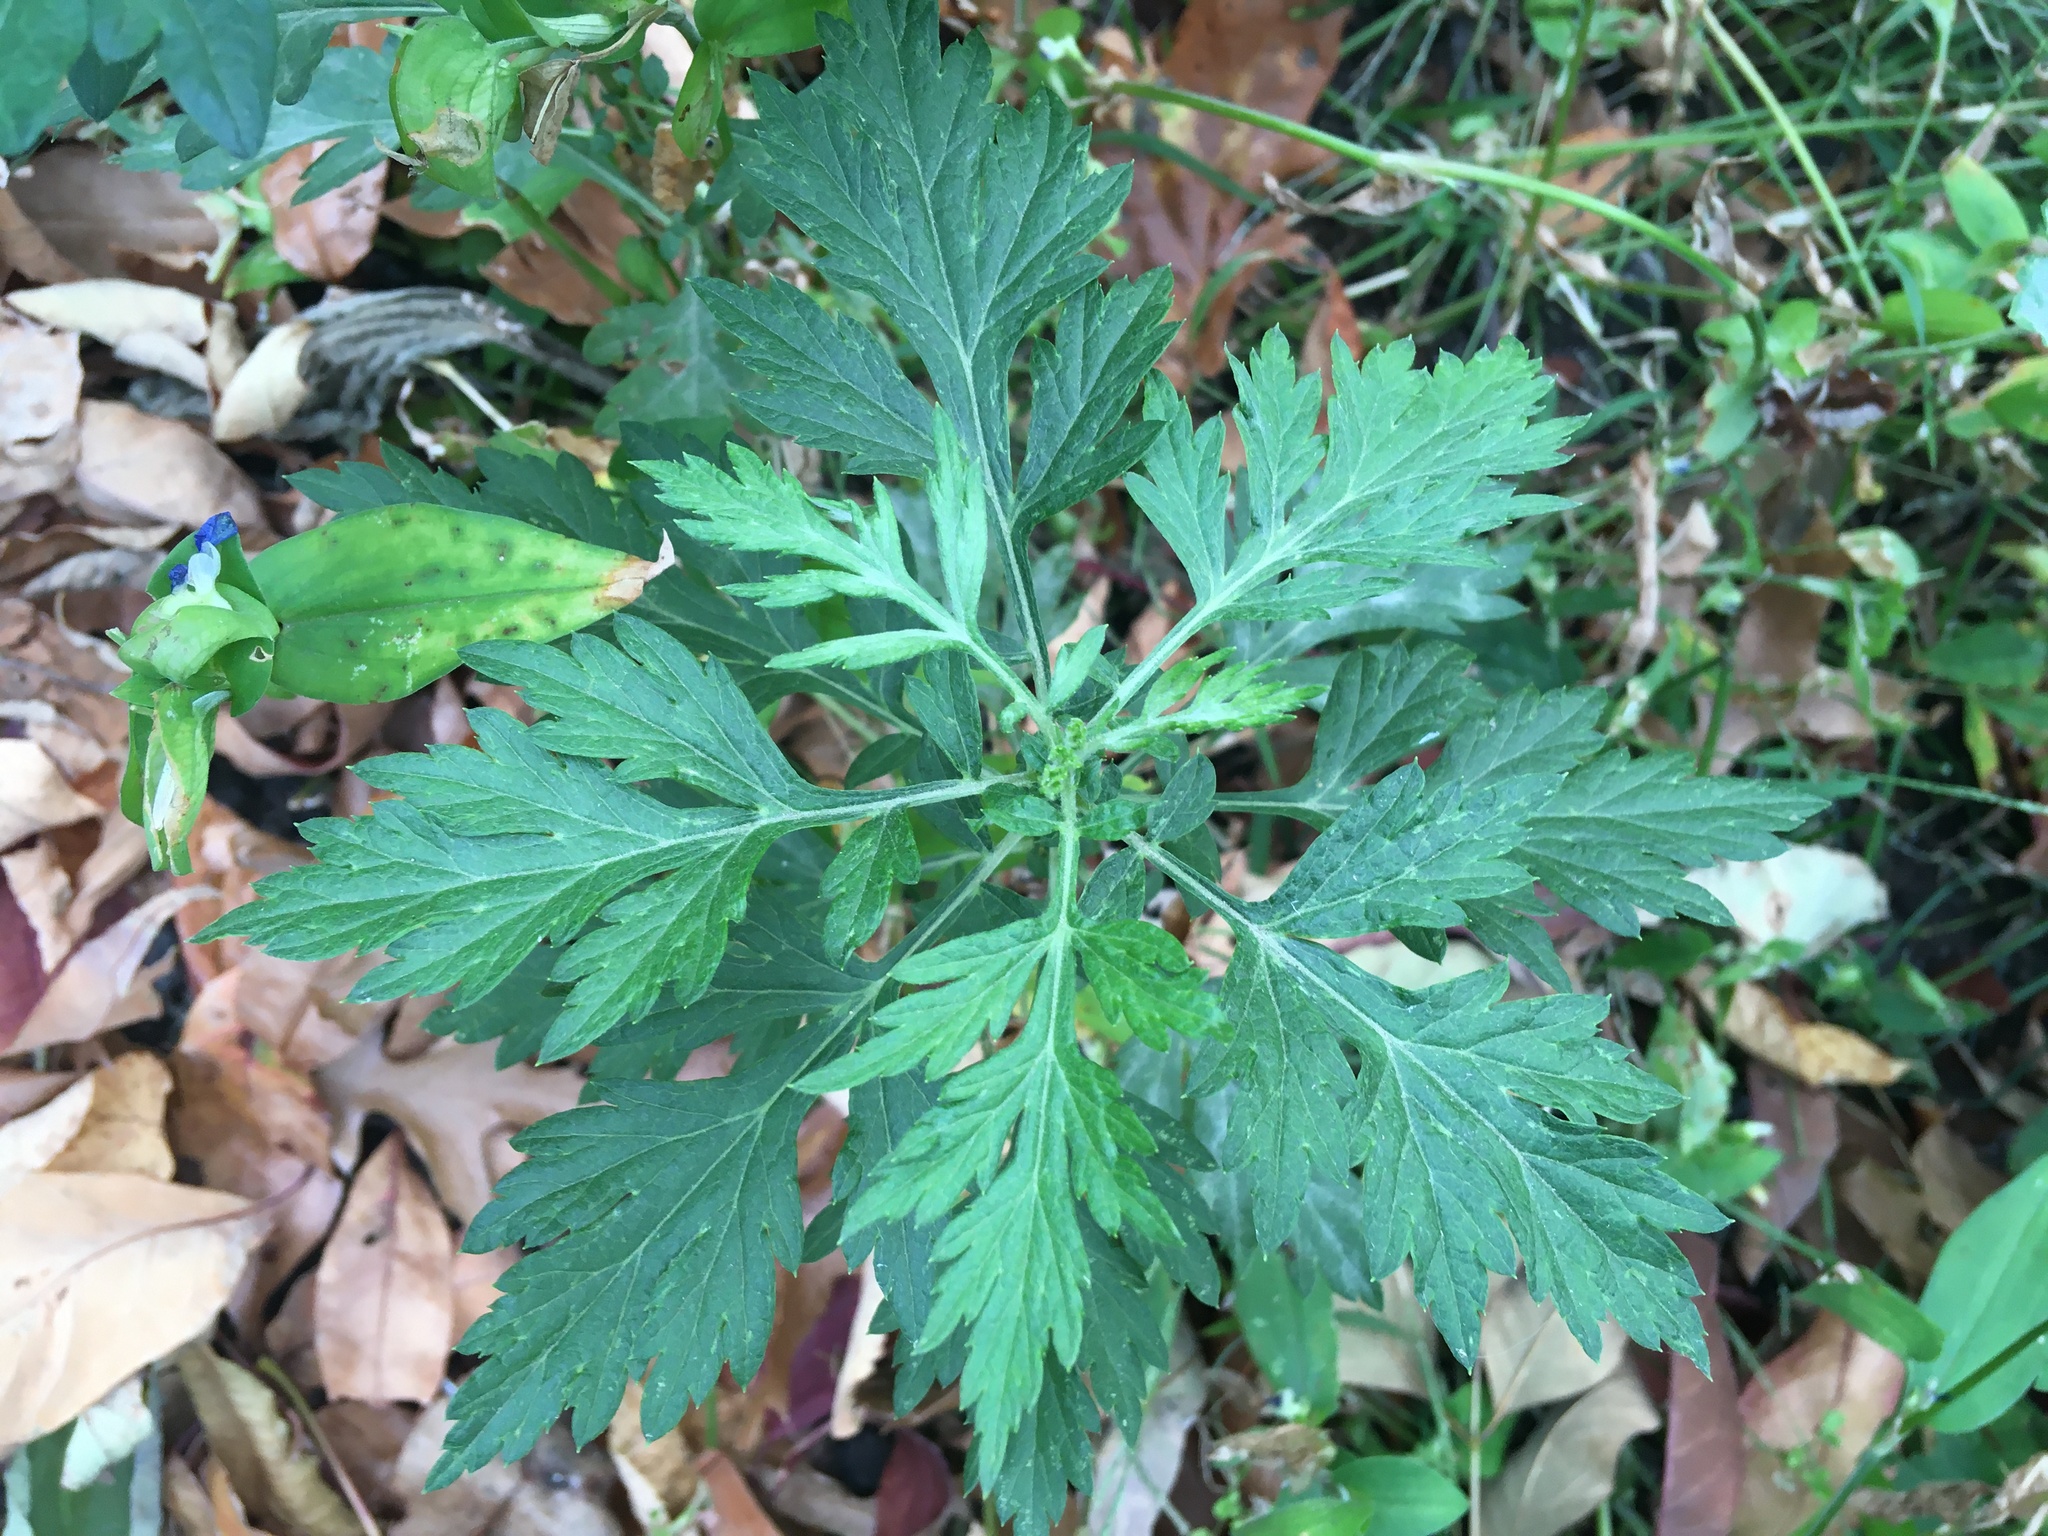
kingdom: Plantae
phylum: Tracheophyta
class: Magnoliopsida
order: Asterales
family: Asteraceae
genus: Artemisia
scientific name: Artemisia vulgaris
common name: Mugwort
